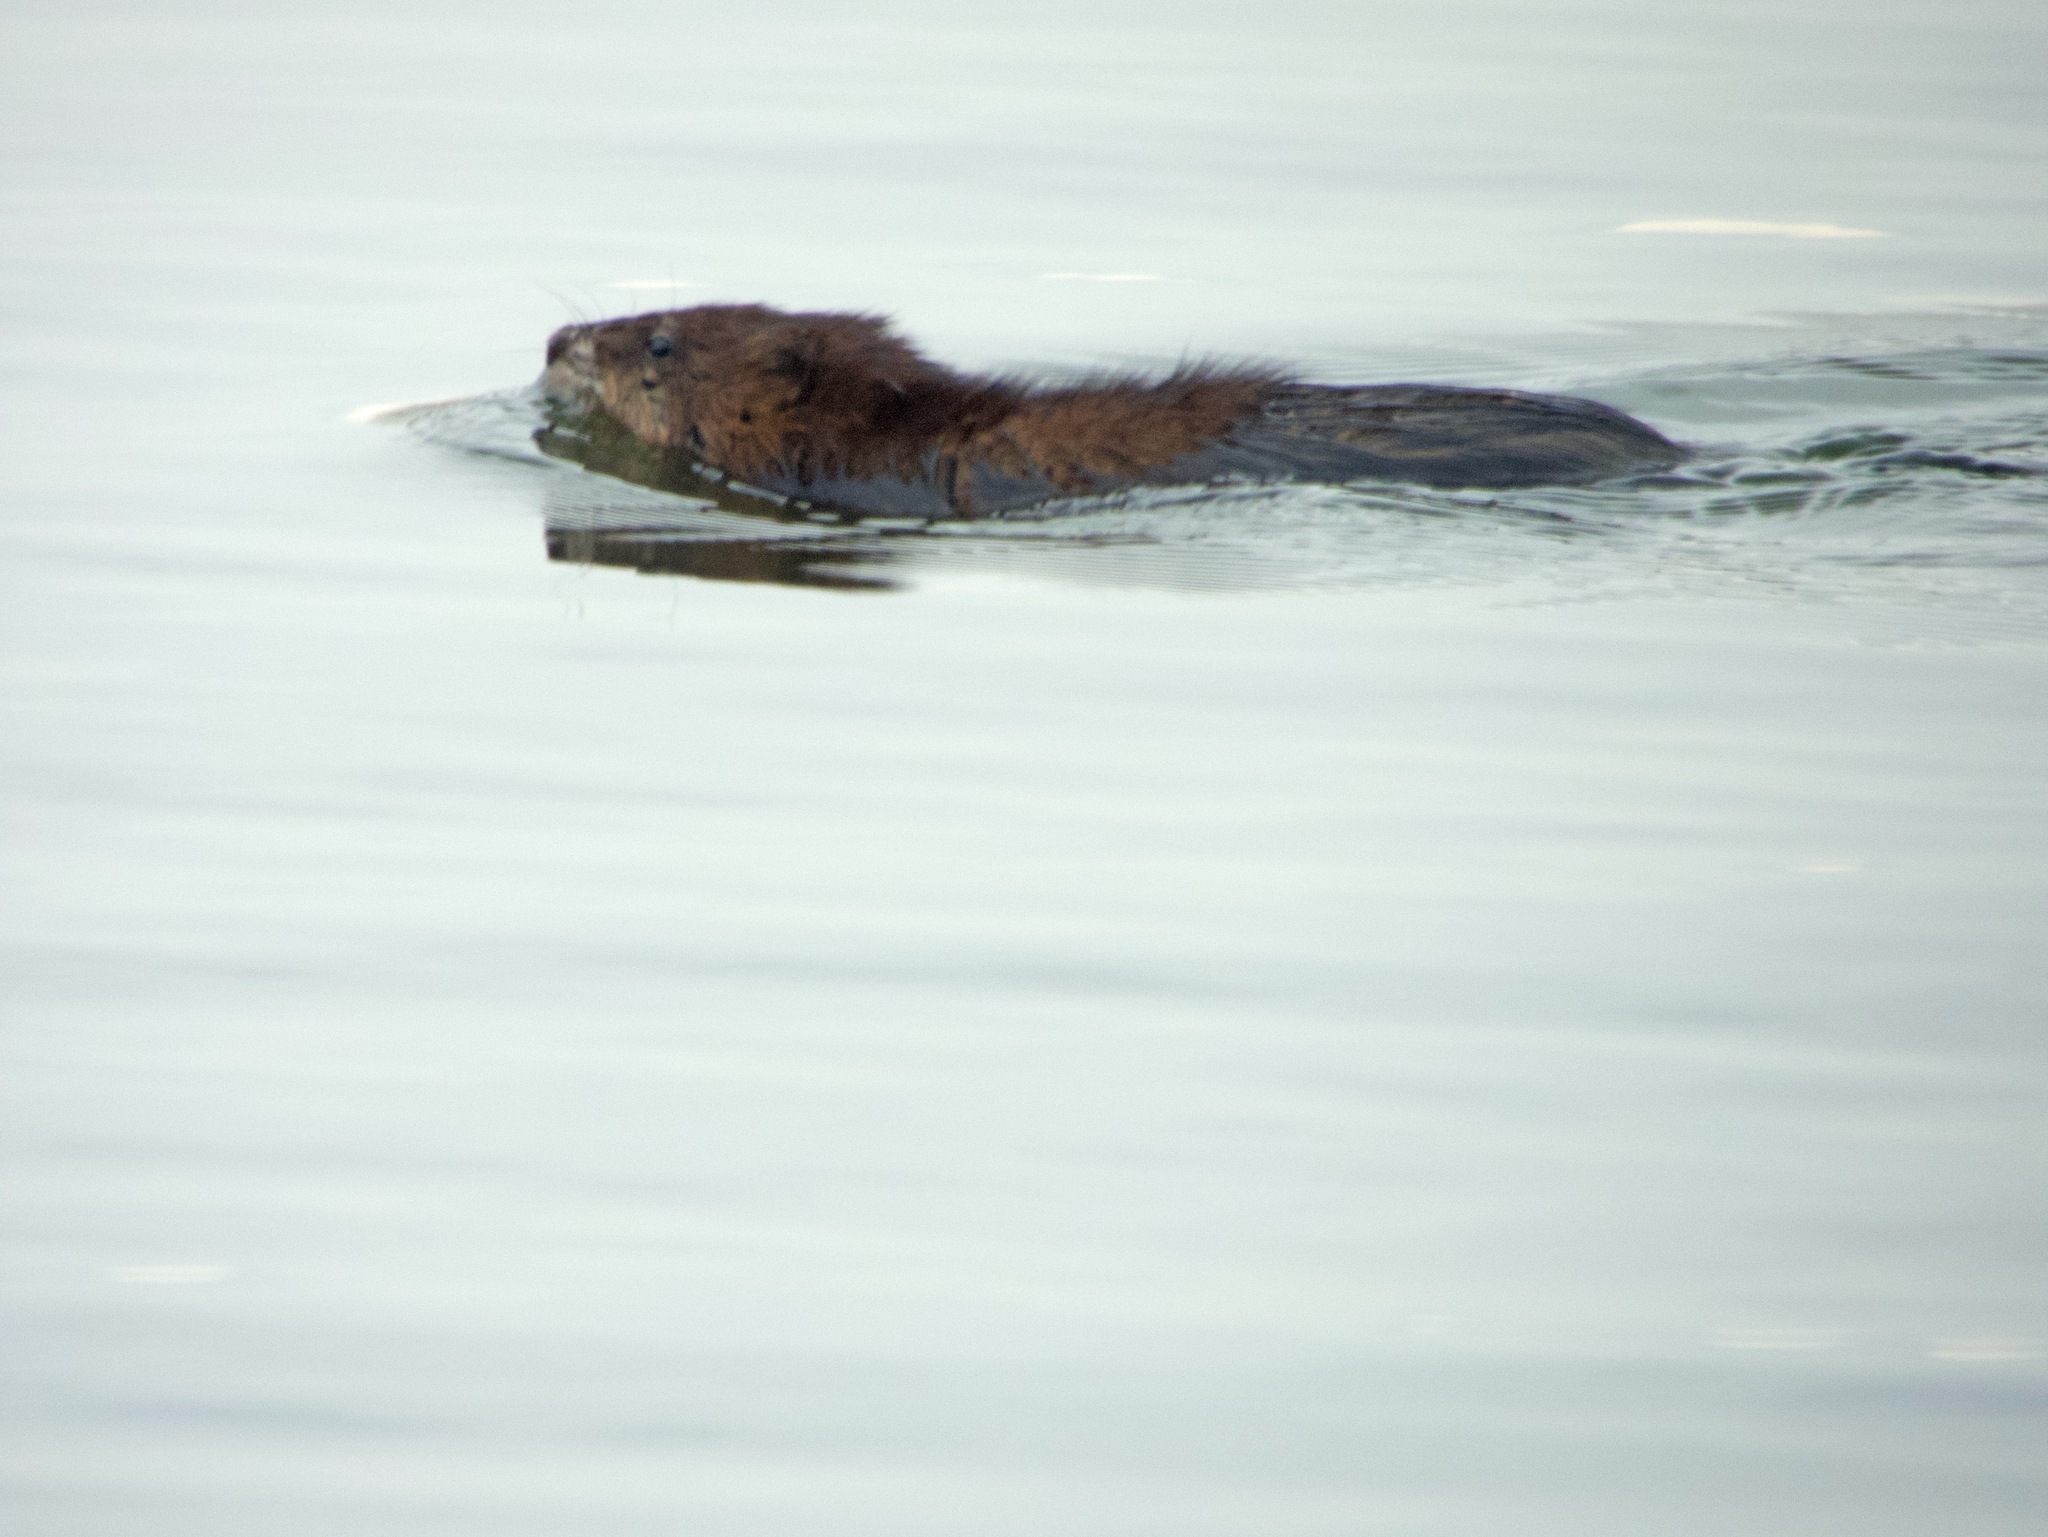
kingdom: Animalia
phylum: Chordata
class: Mammalia
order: Rodentia
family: Cricetidae
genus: Ondatra
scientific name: Ondatra zibethicus
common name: Muskrat
